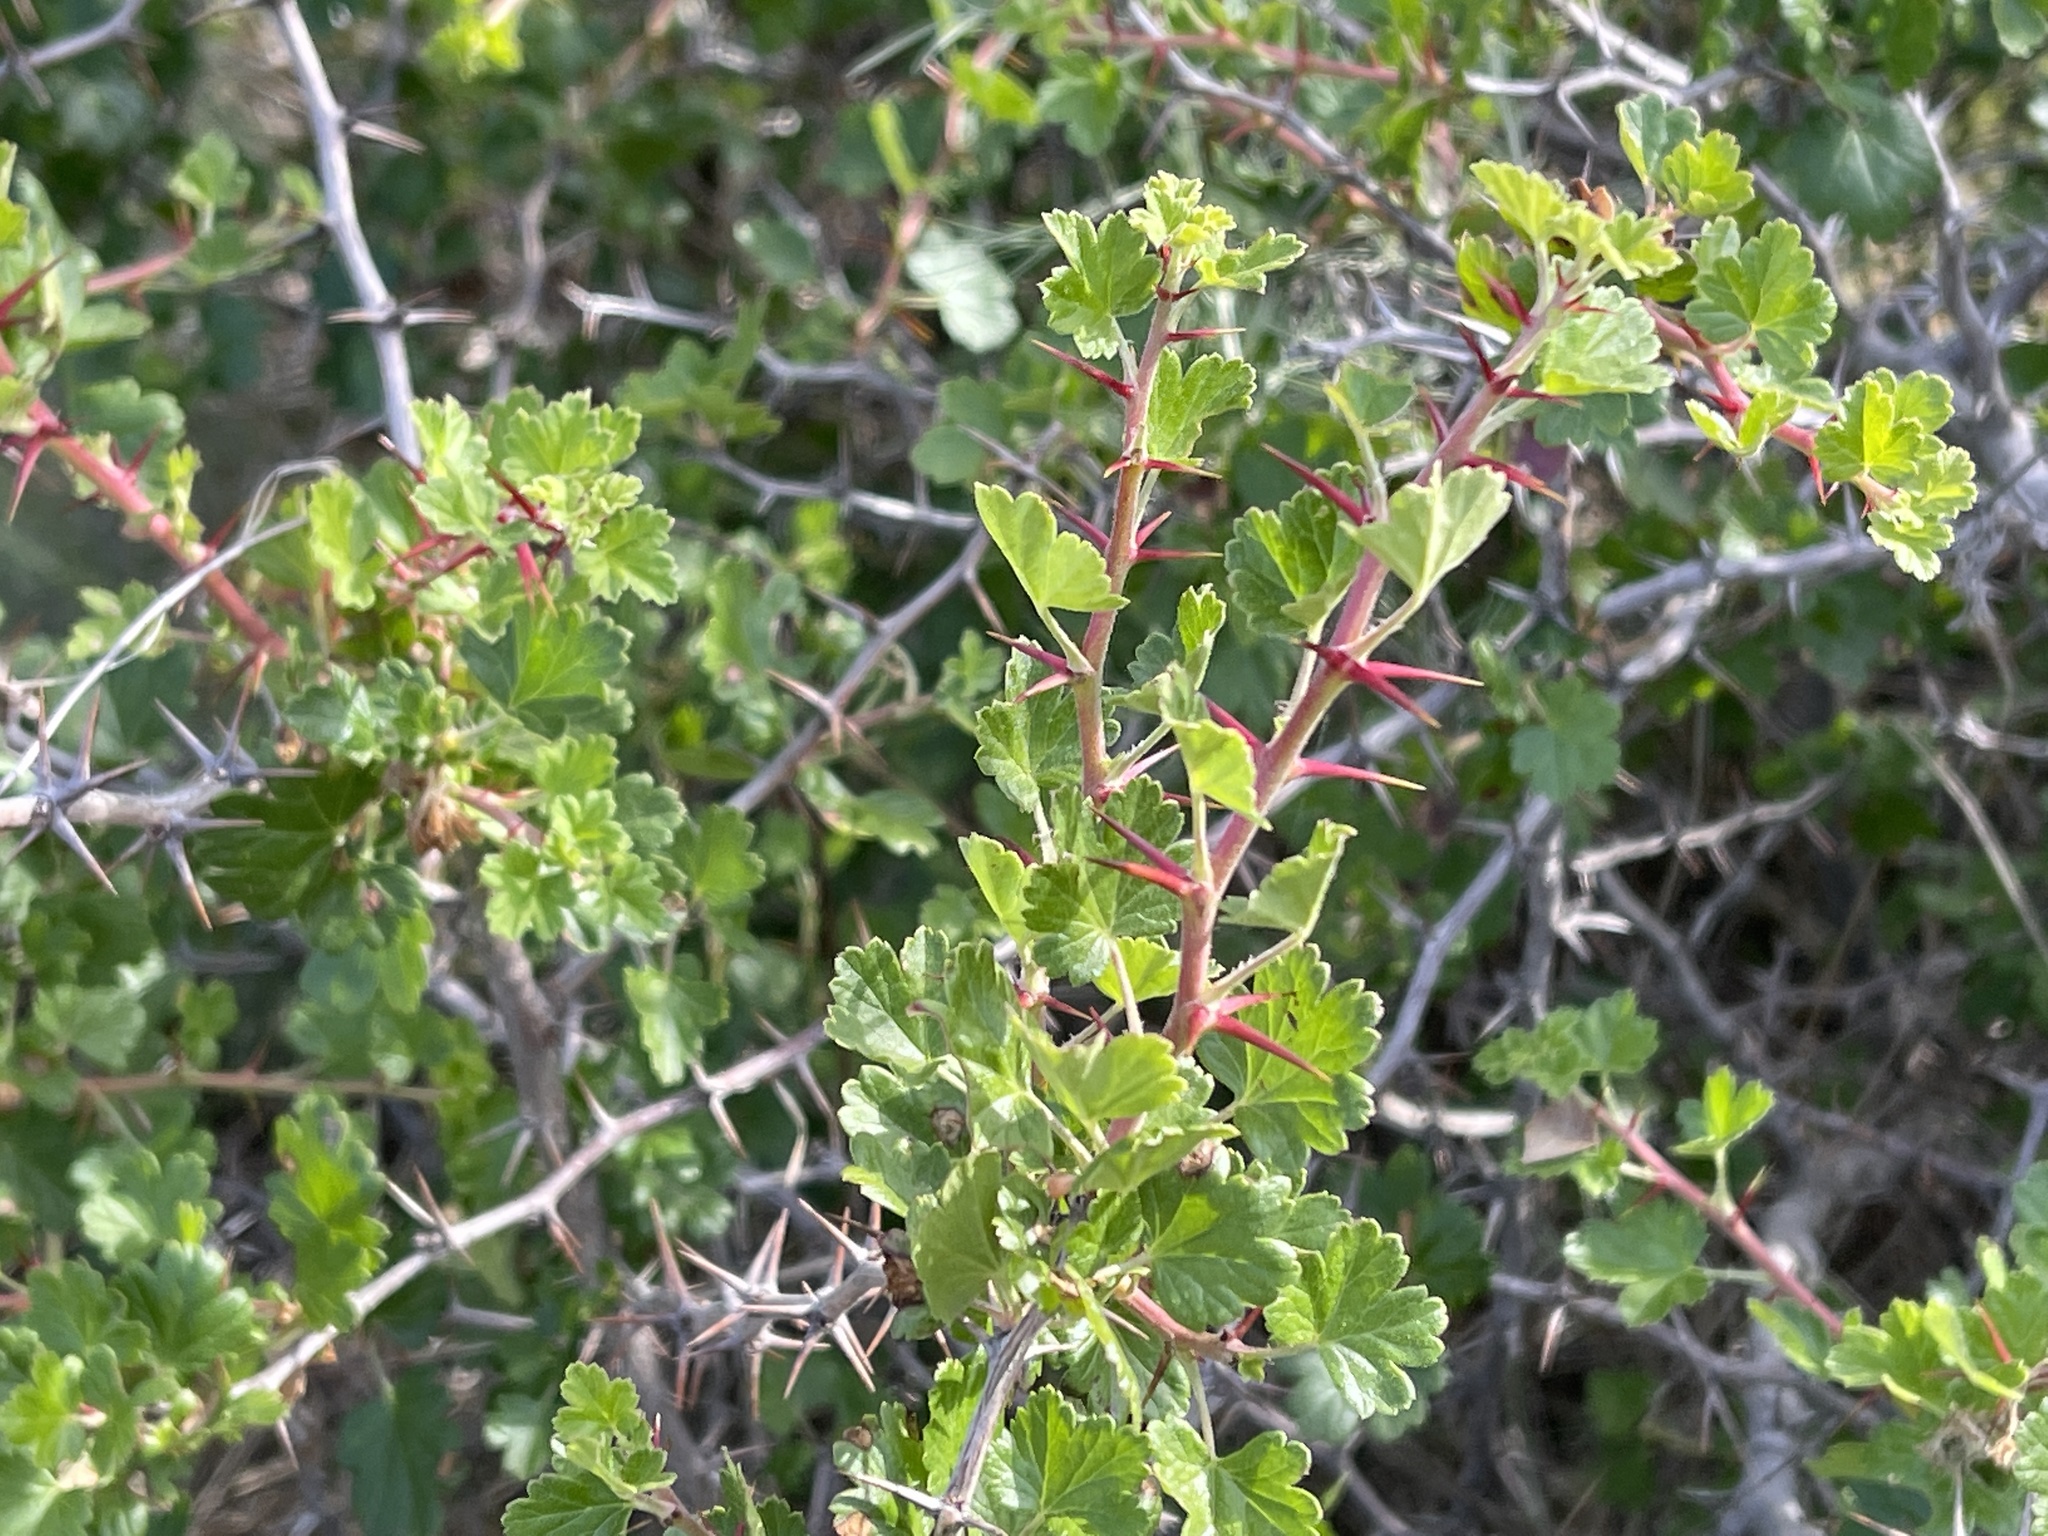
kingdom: Plantae
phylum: Tracheophyta
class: Magnoliopsida
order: Saxifragales
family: Grossulariaceae
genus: Ribes
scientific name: Ribes californicum
